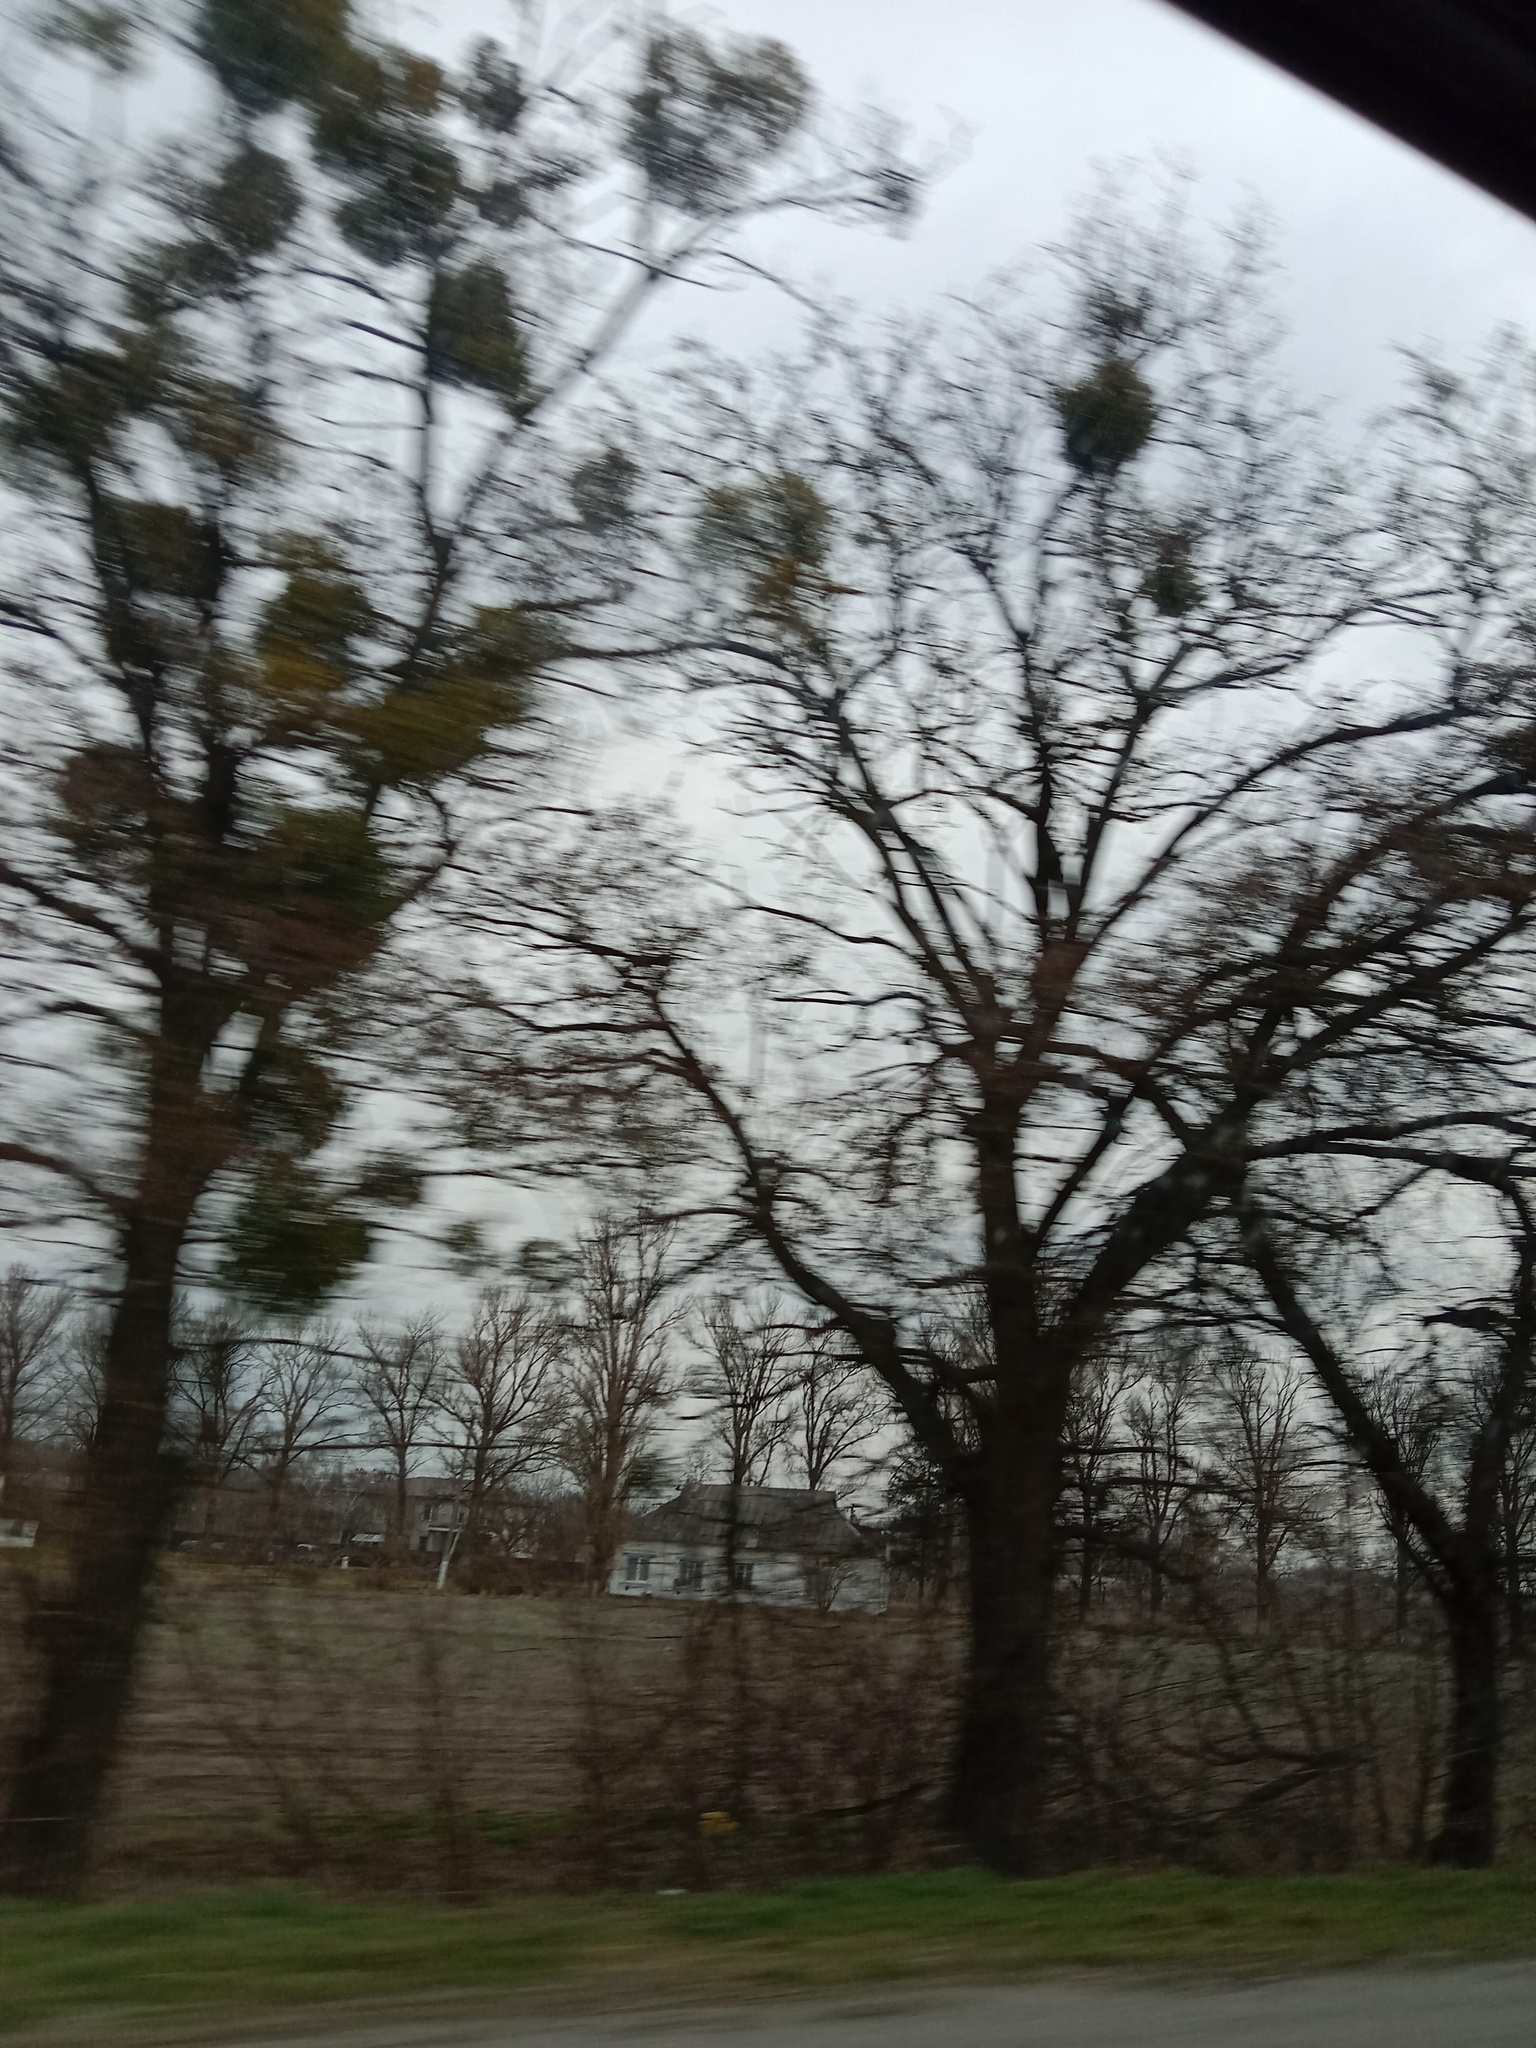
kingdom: Plantae
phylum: Tracheophyta
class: Magnoliopsida
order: Santalales
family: Viscaceae
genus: Viscum
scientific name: Viscum album
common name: Mistletoe
